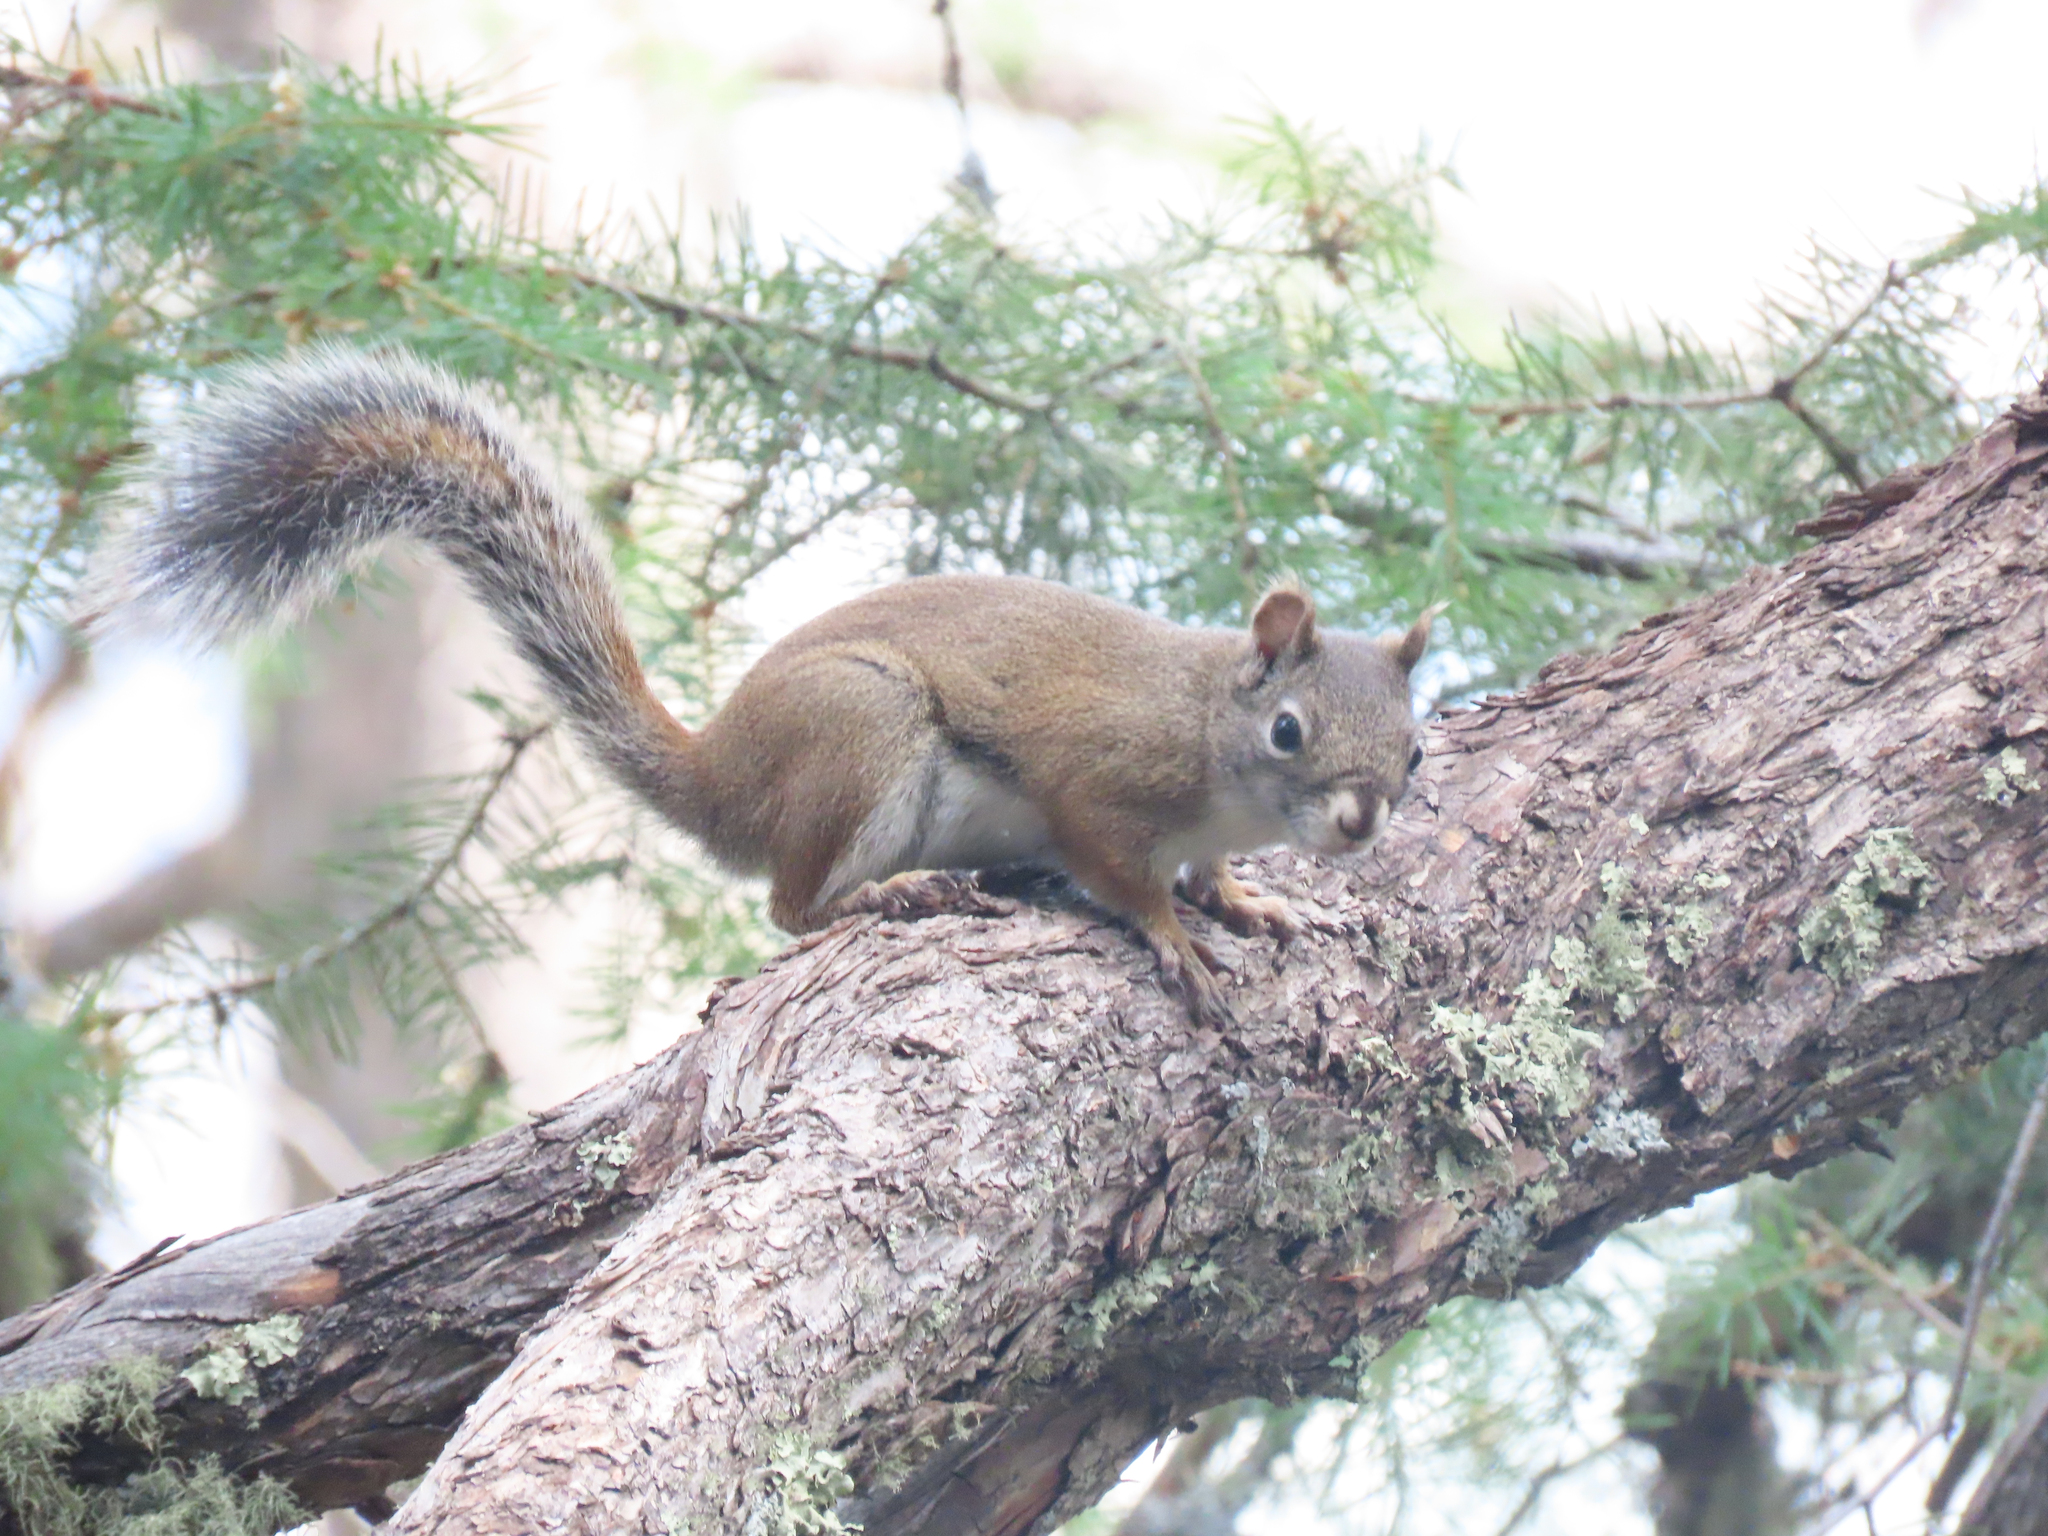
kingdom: Animalia
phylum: Chordata
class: Mammalia
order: Rodentia
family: Sciuridae
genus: Tamiasciurus
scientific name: Tamiasciurus hudsonicus
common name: Red squirrel
